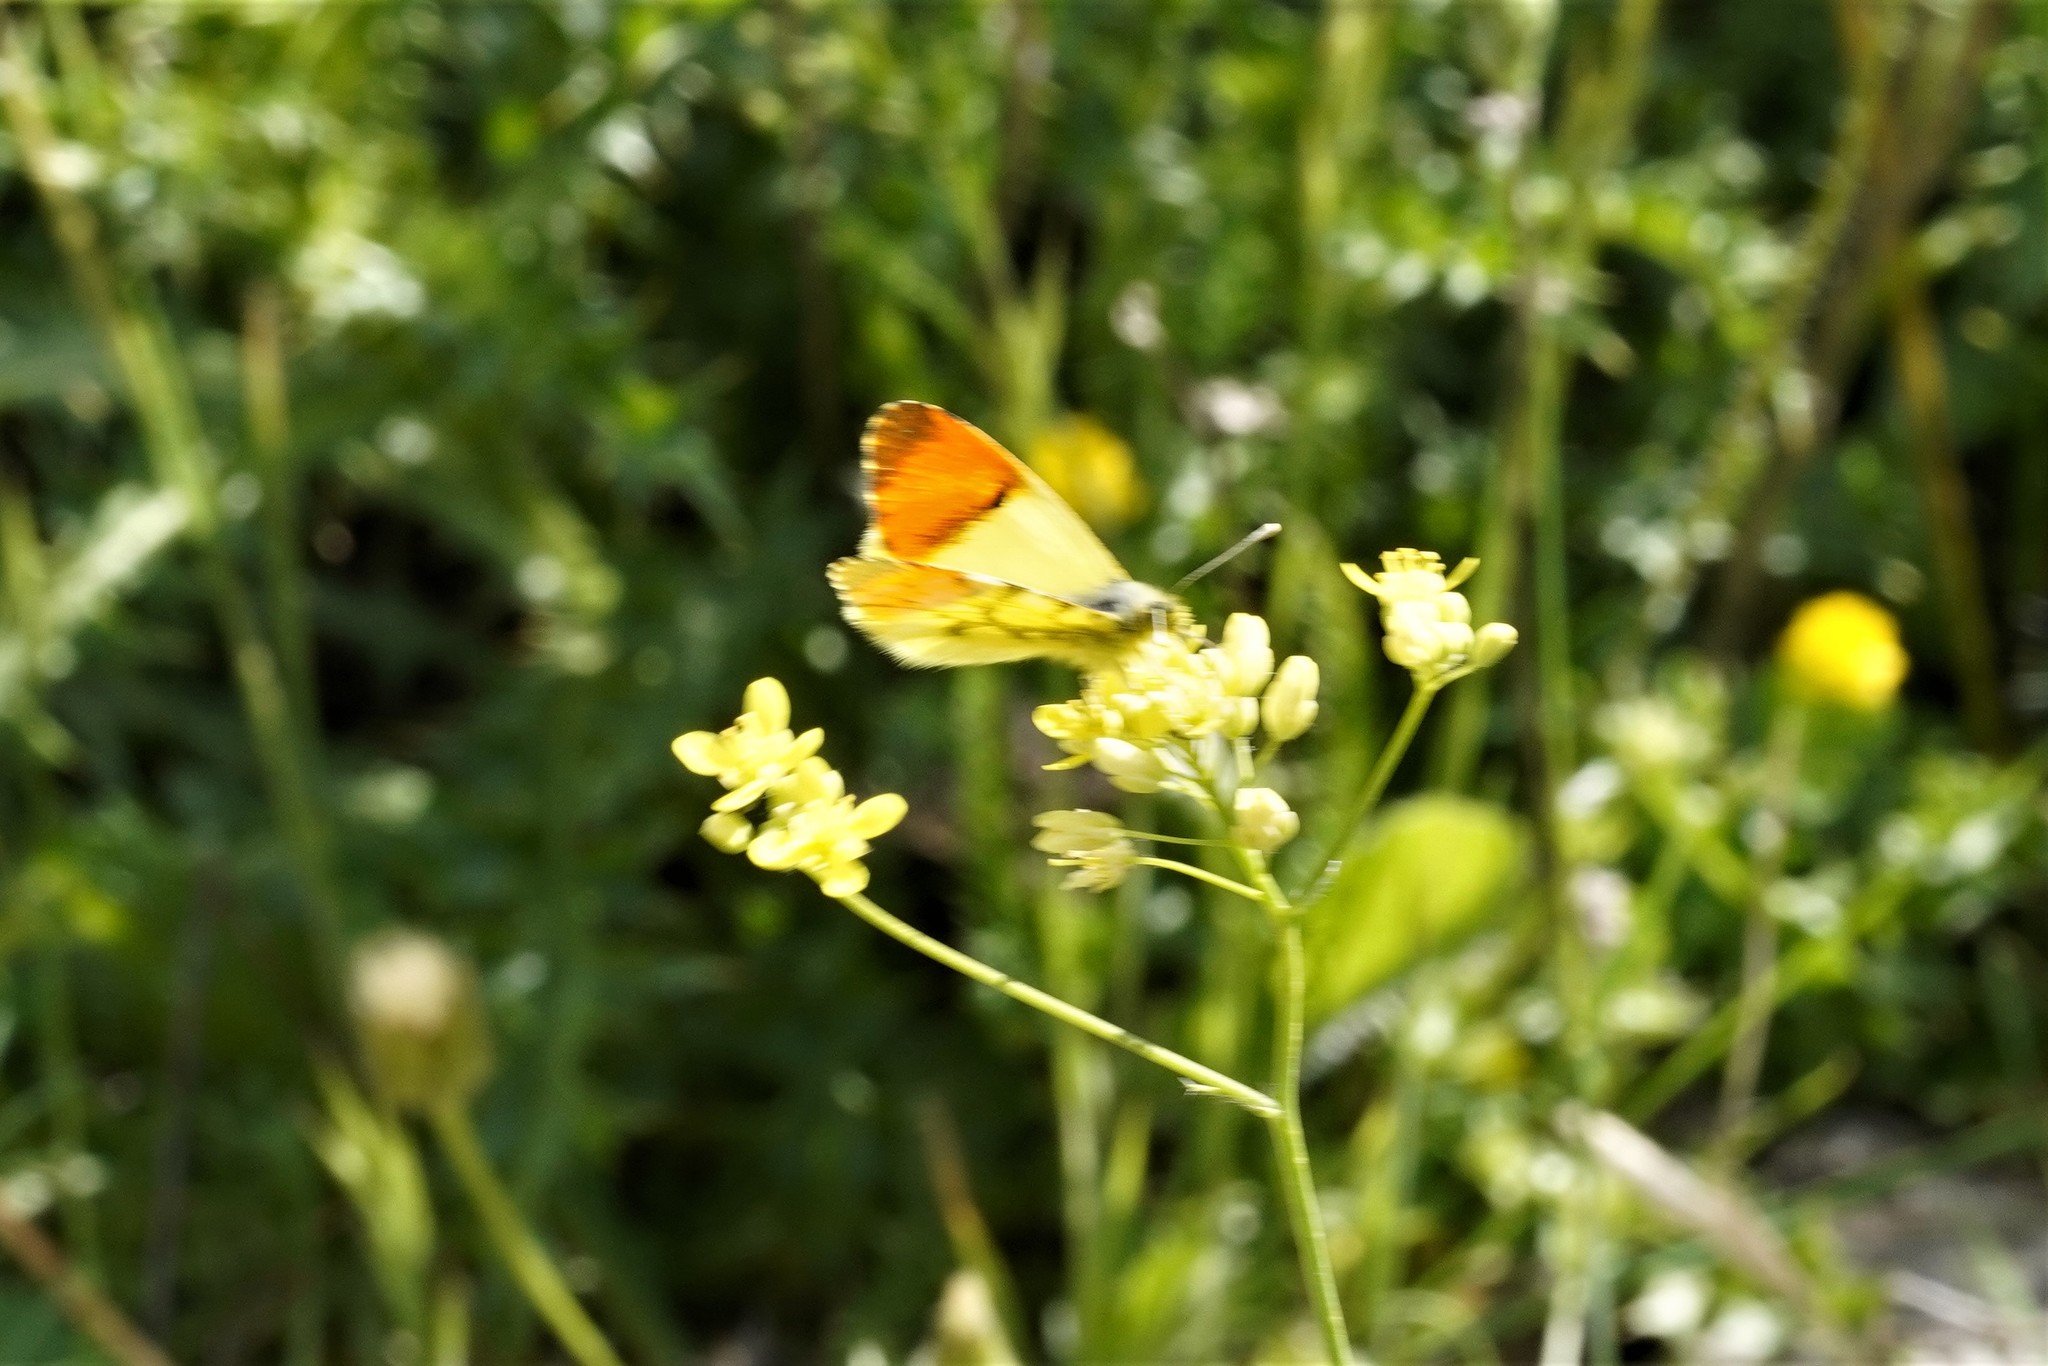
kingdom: Animalia
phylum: Arthropoda
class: Insecta
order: Lepidoptera
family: Pieridae
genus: Anthocharis
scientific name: Anthocharis euphenoides
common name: Provence orange-tip
